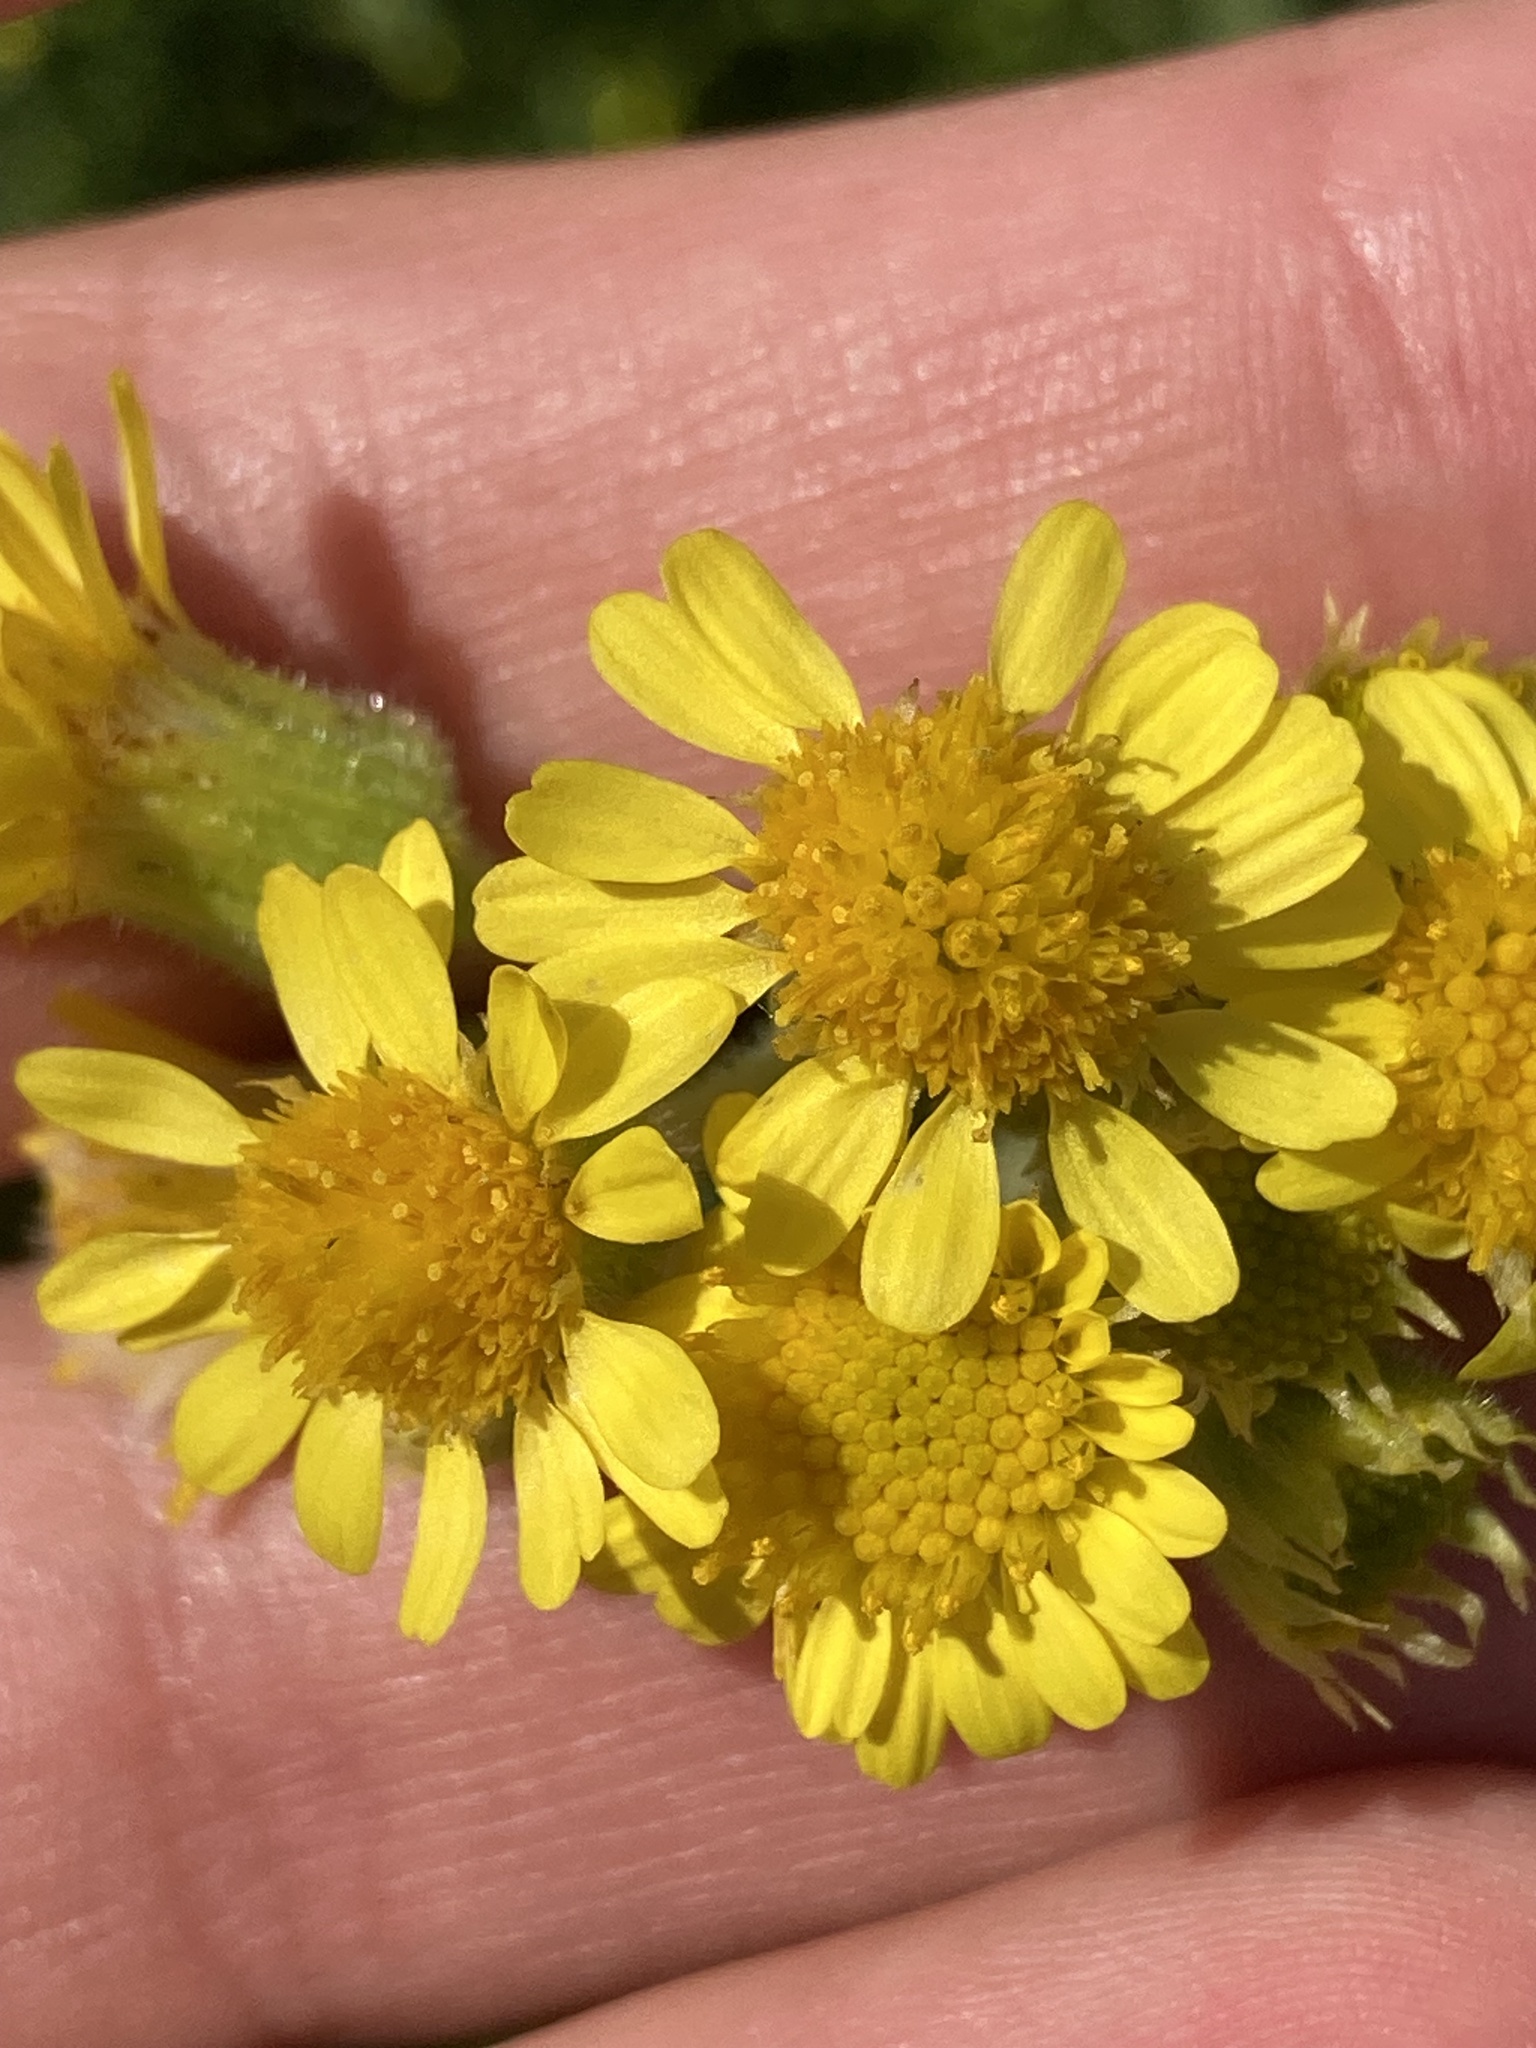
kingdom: Plantae
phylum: Tracheophyta
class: Magnoliopsida
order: Asterales
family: Asteraceae
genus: Tephroseris
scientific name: Tephroseris palustris
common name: Marsh fleawort
